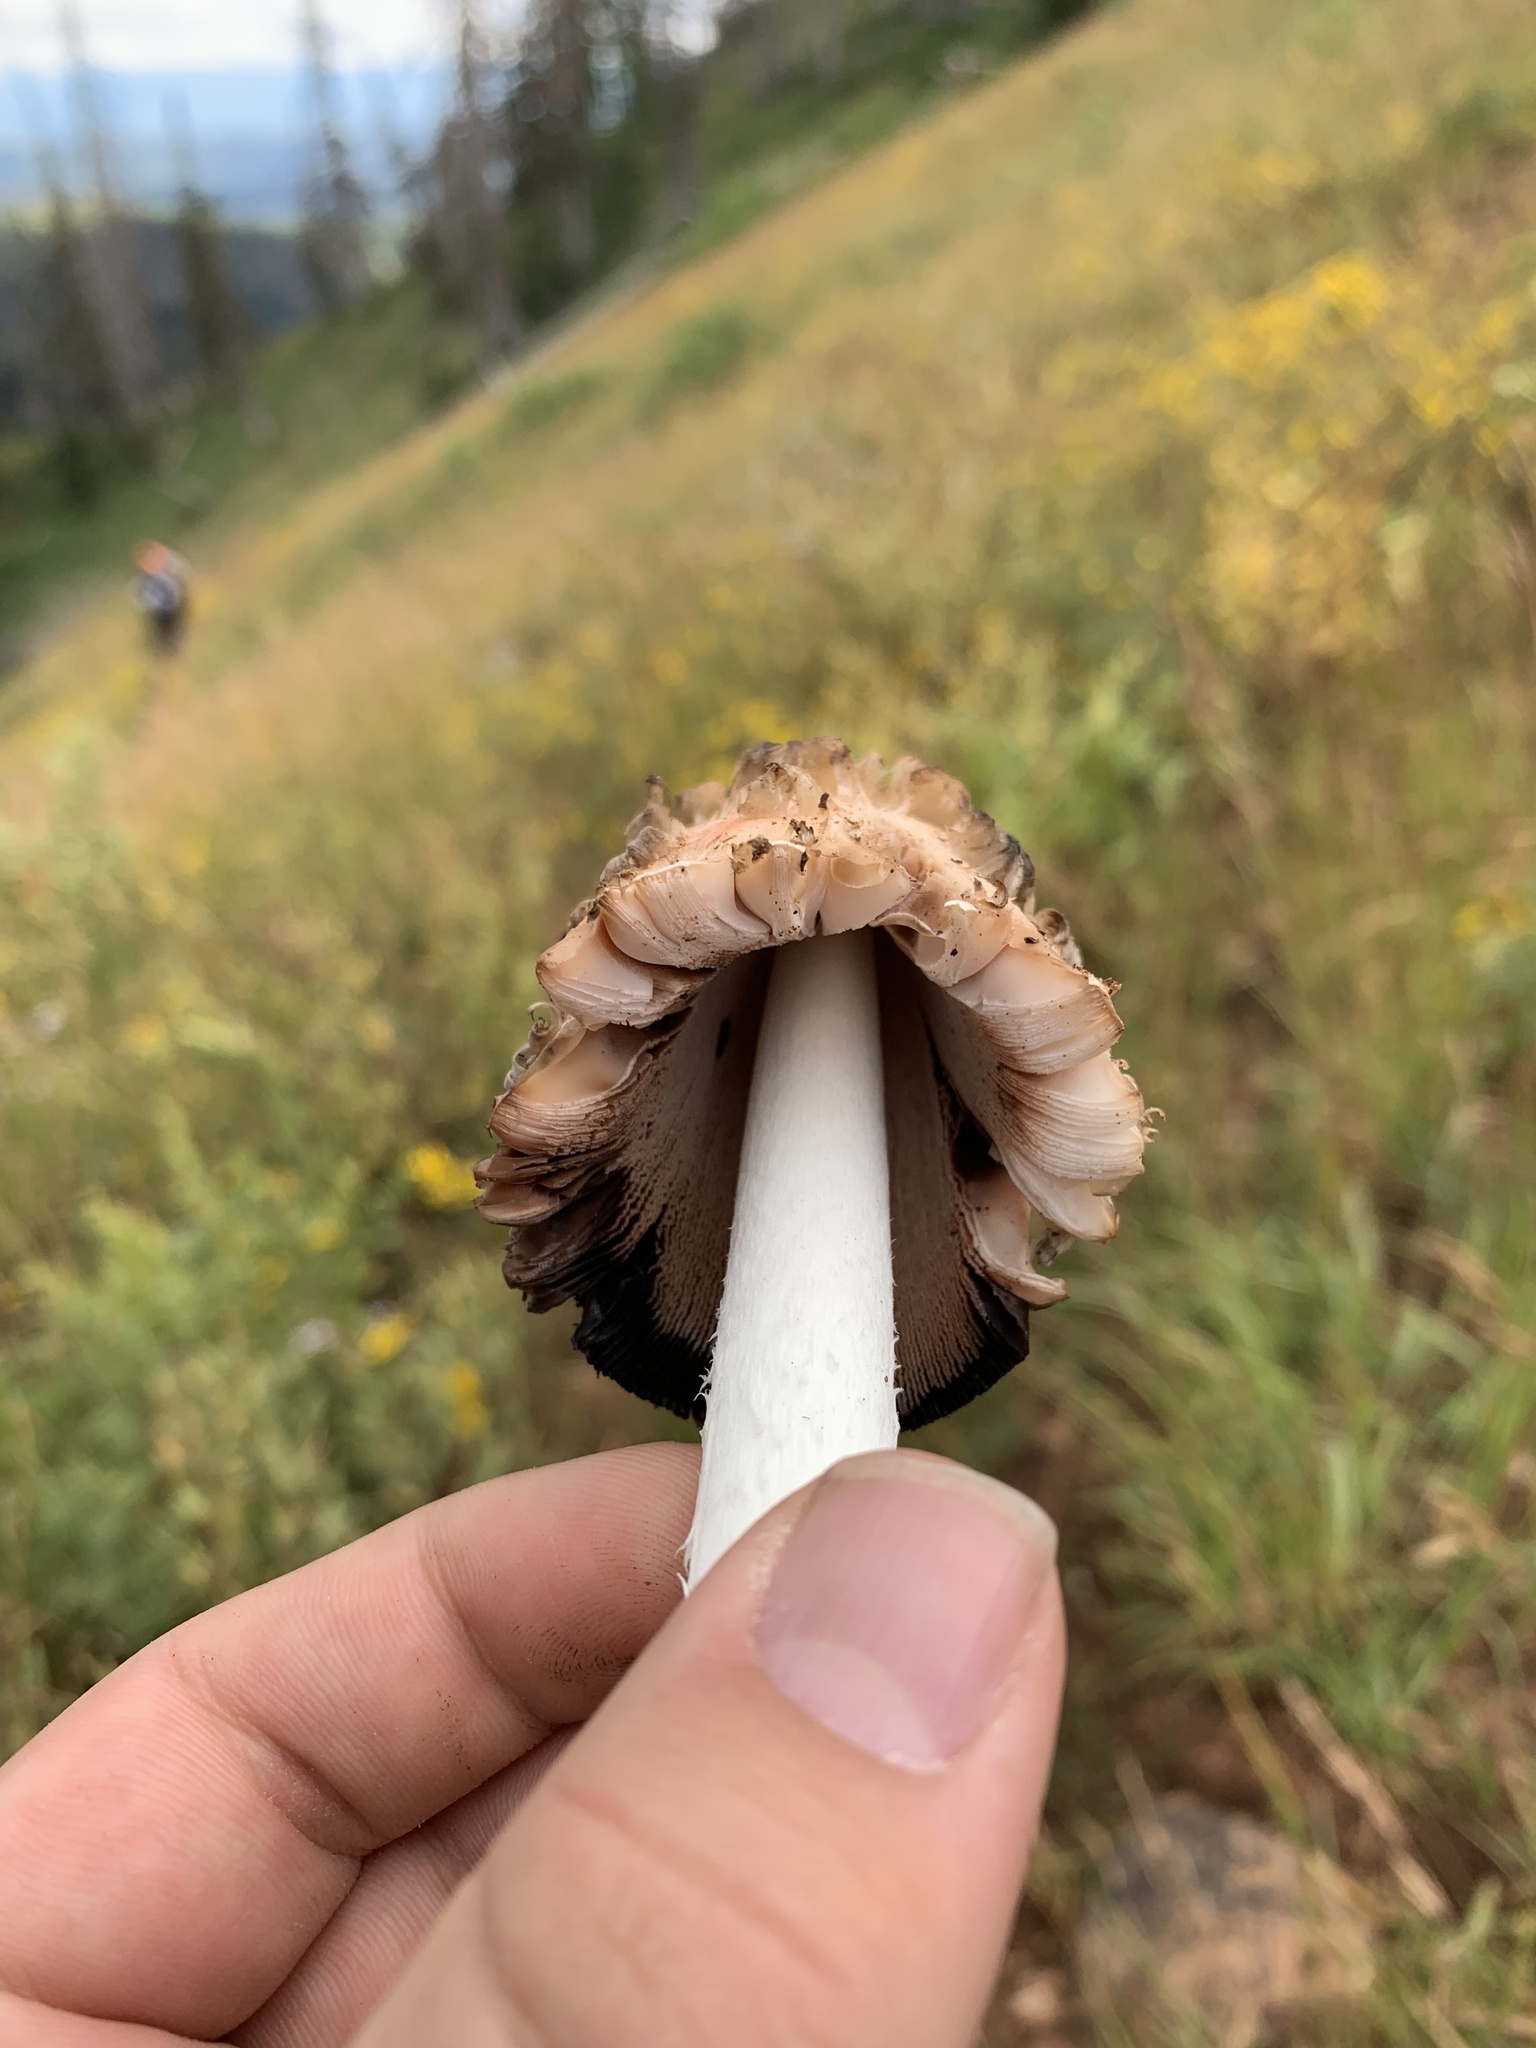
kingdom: Fungi
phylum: Basidiomycota
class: Agaricomycetes
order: Agaricales
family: Agaricaceae
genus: Coprinus
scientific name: Coprinus comatus
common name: Lawyer's wig
